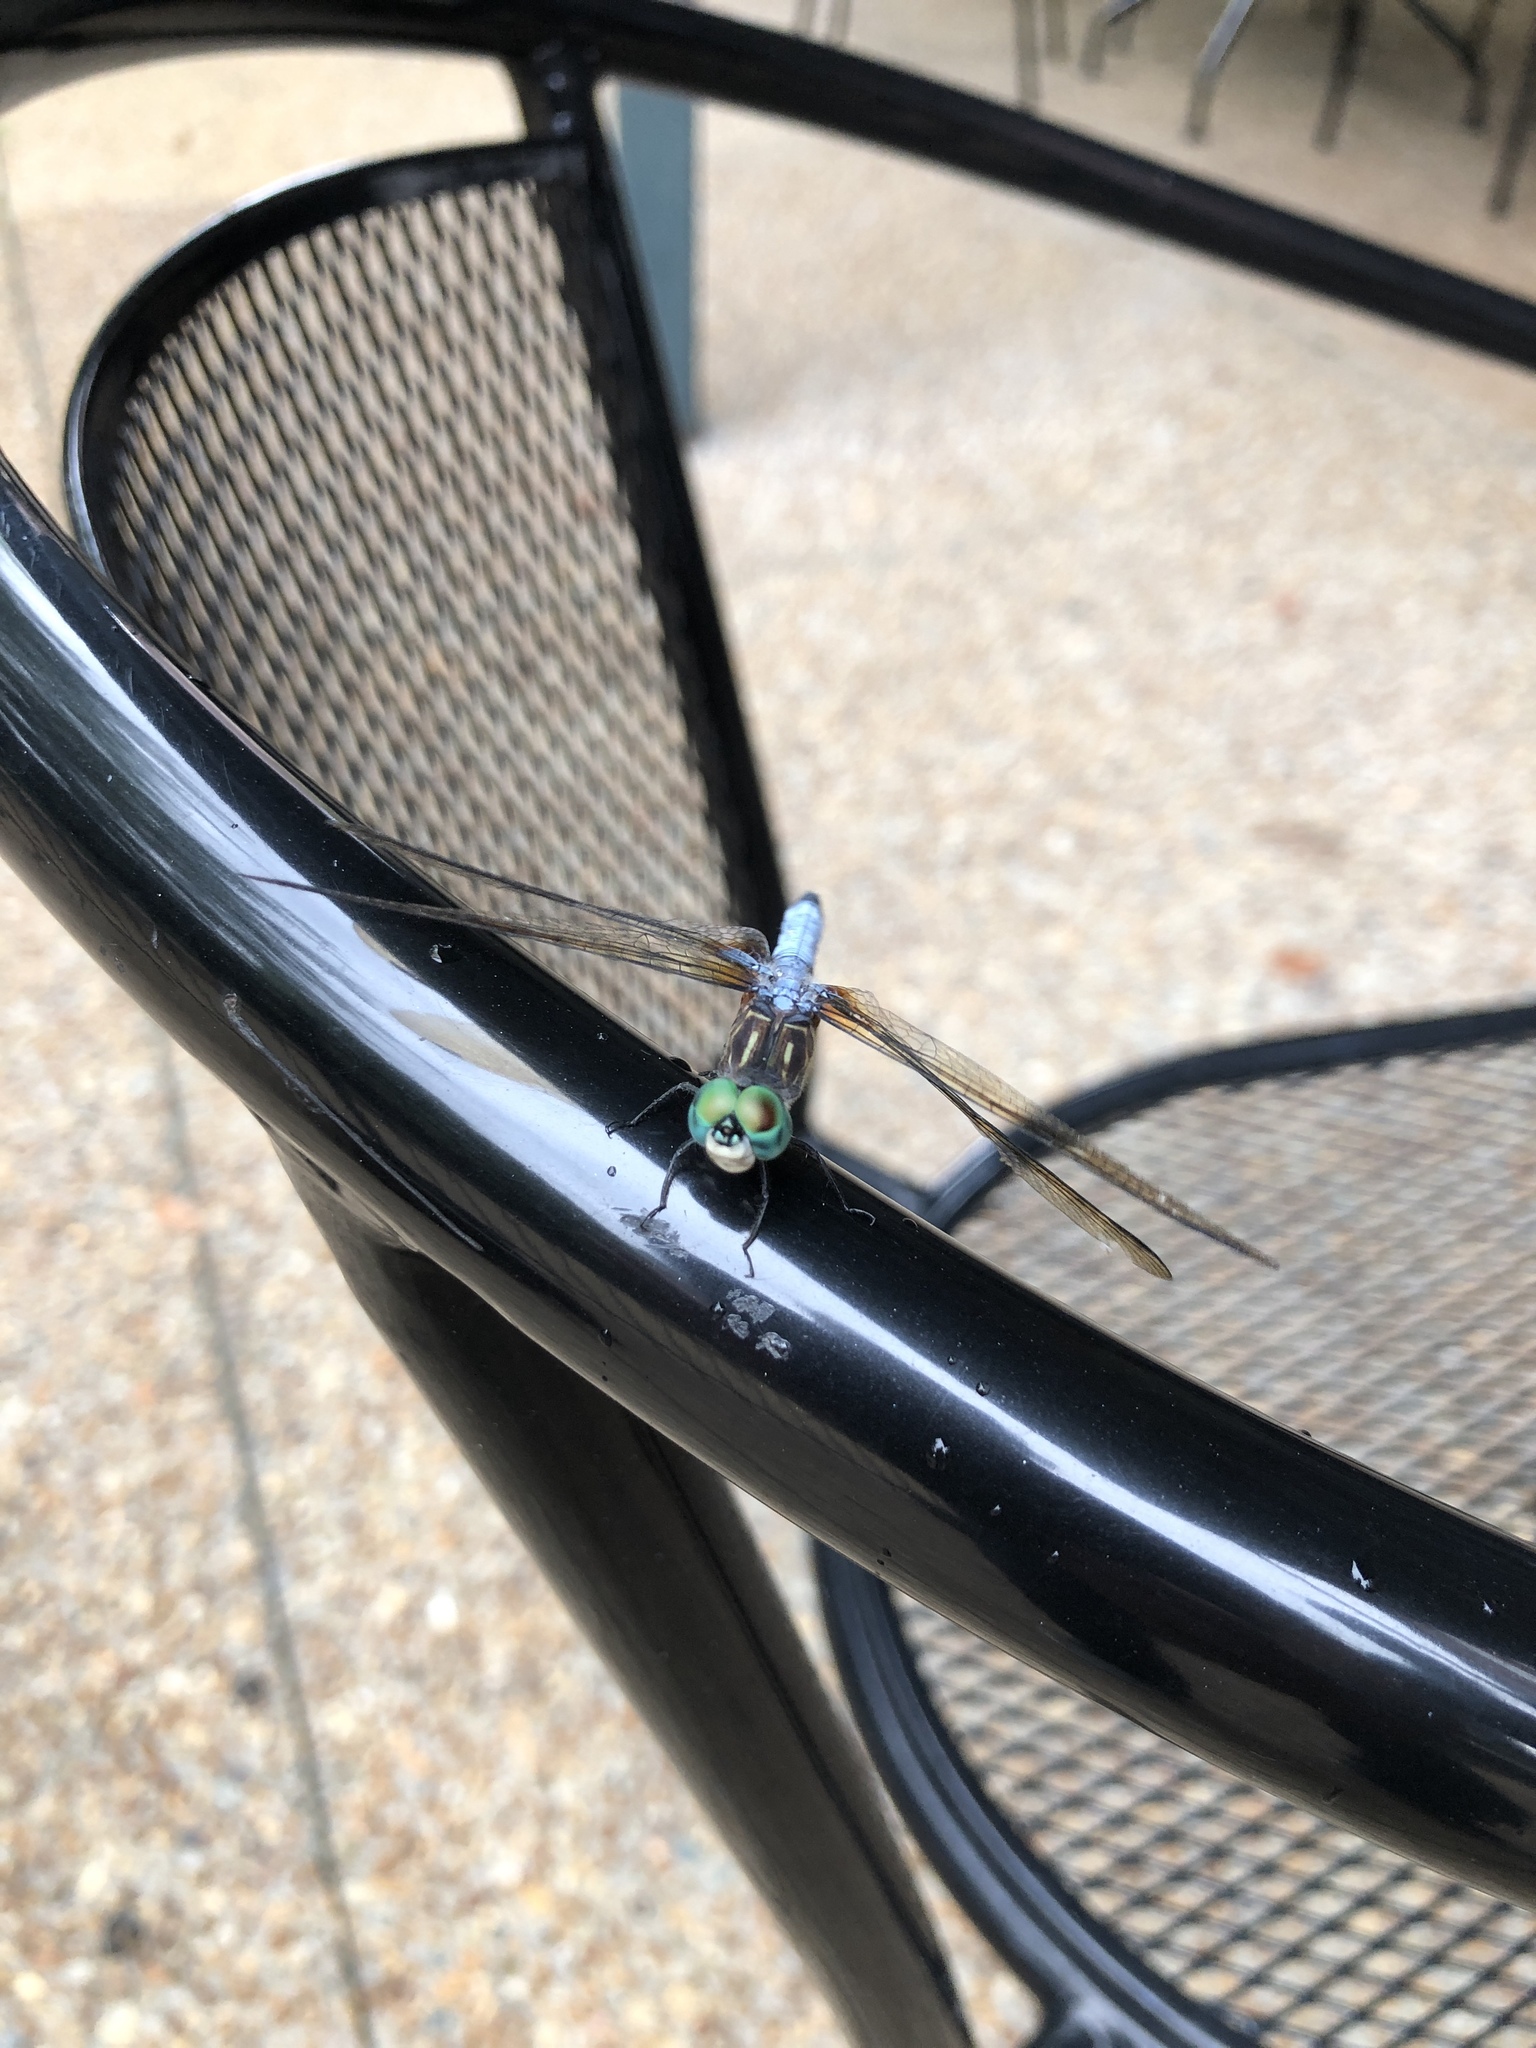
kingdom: Animalia
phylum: Arthropoda
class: Insecta
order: Odonata
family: Libellulidae
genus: Pachydiplax
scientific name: Pachydiplax longipennis
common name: Blue dasher
